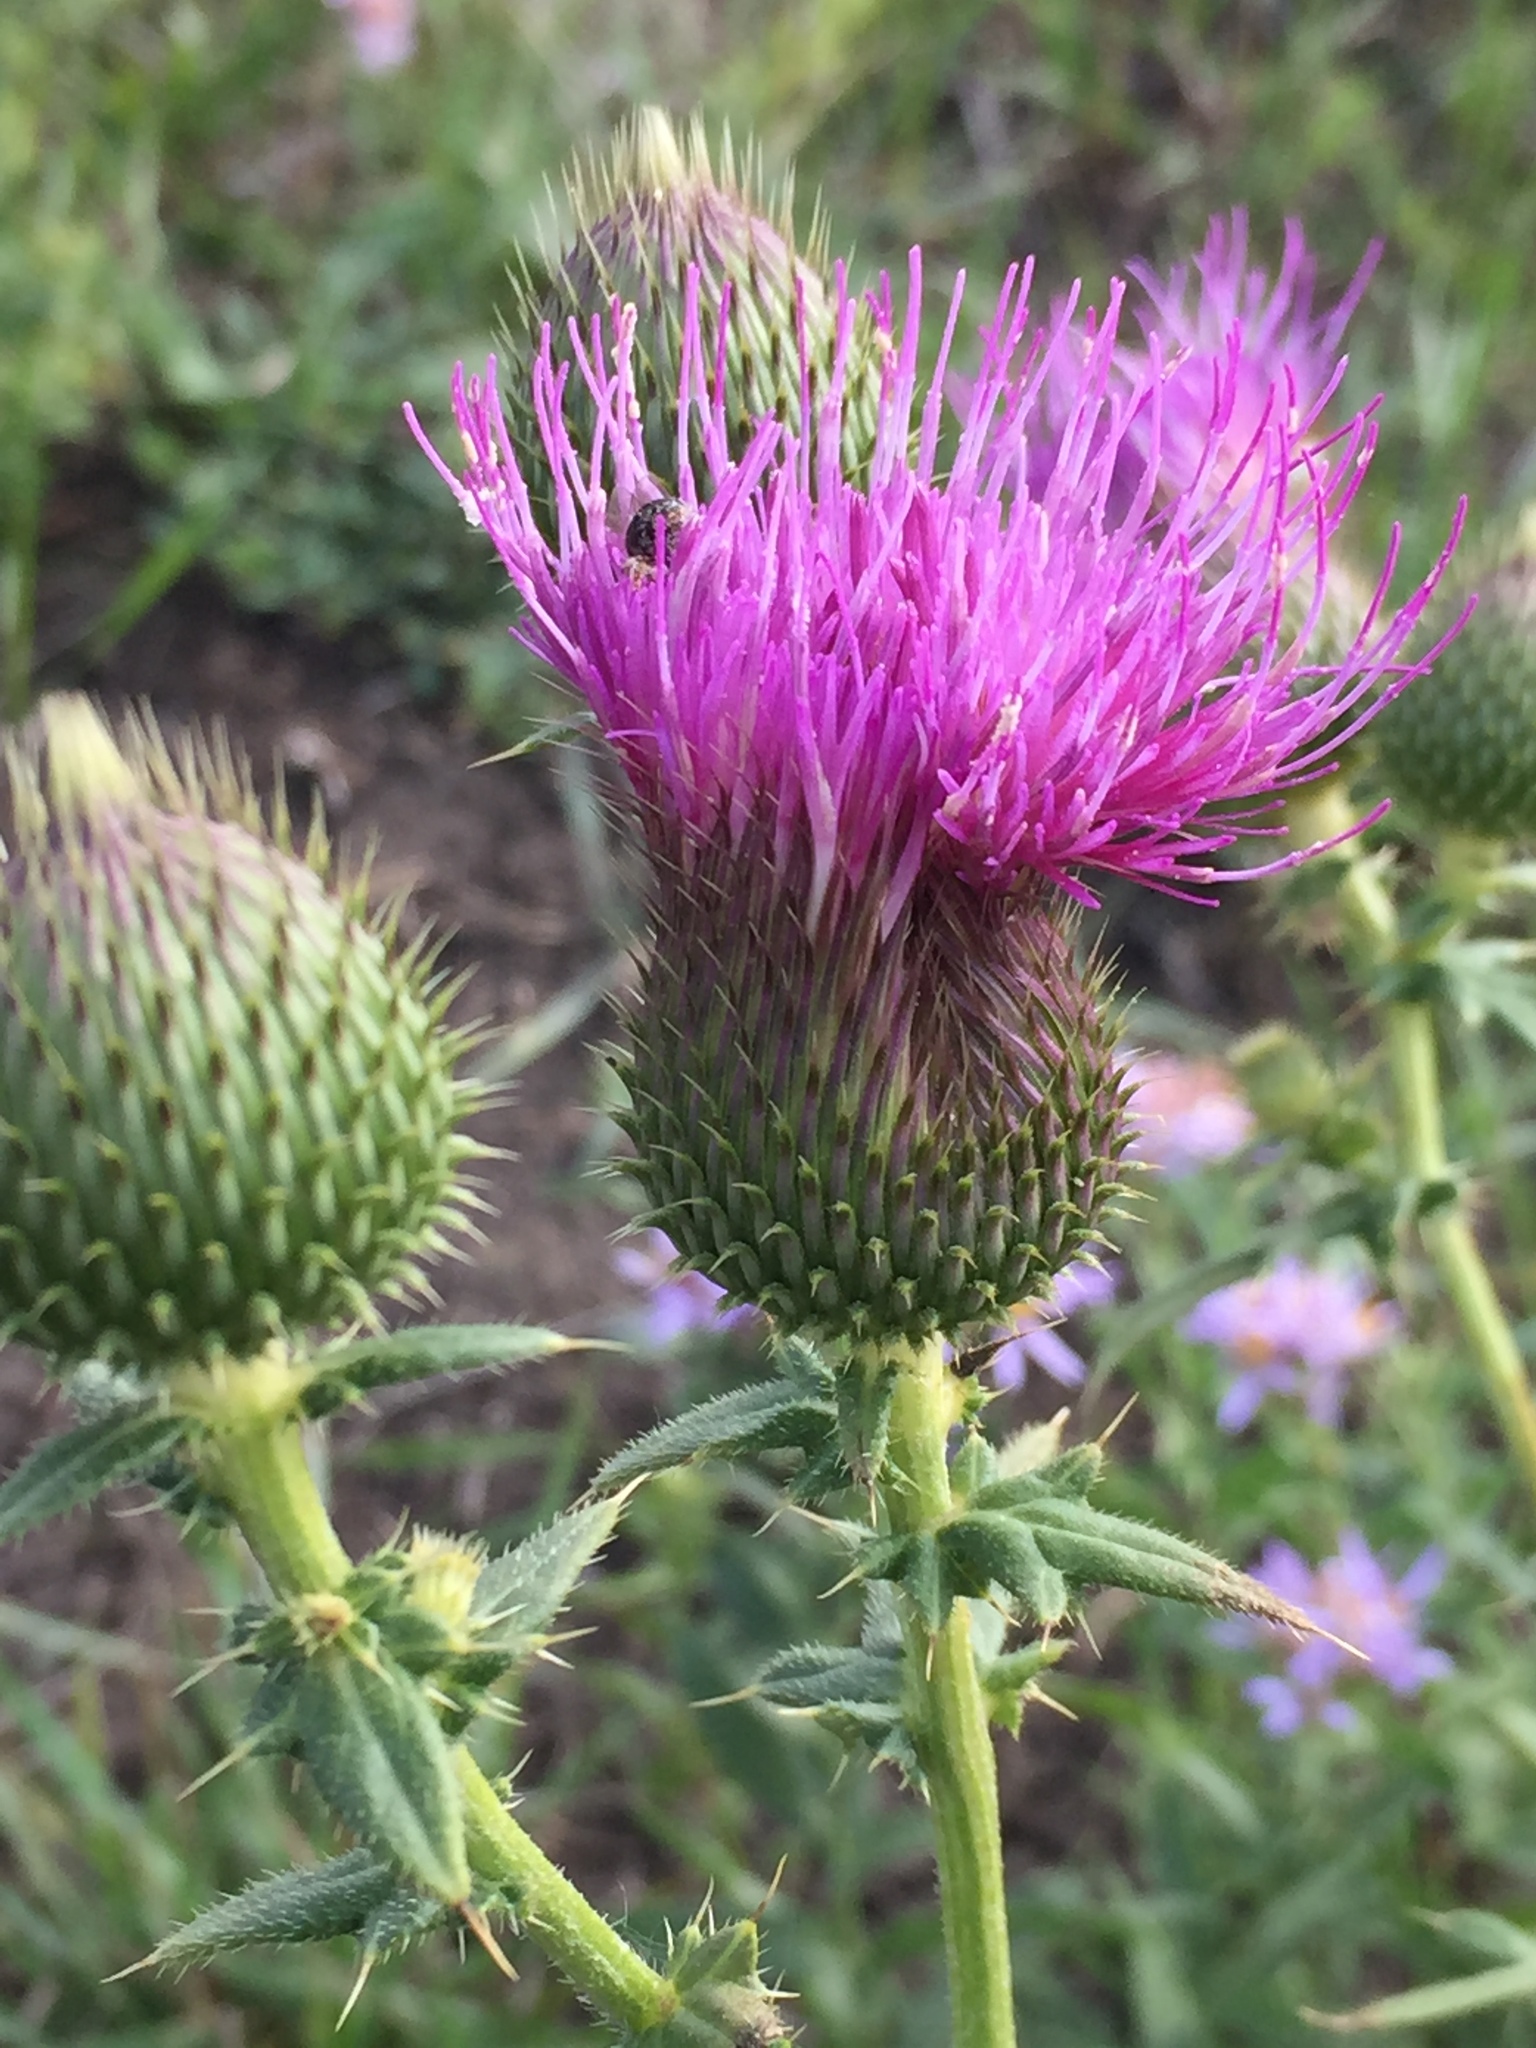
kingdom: Plantae
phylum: Tracheophyta
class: Magnoliopsida
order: Asterales
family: Asteraceae
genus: Cirsium
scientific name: Cirsium serrulatum
